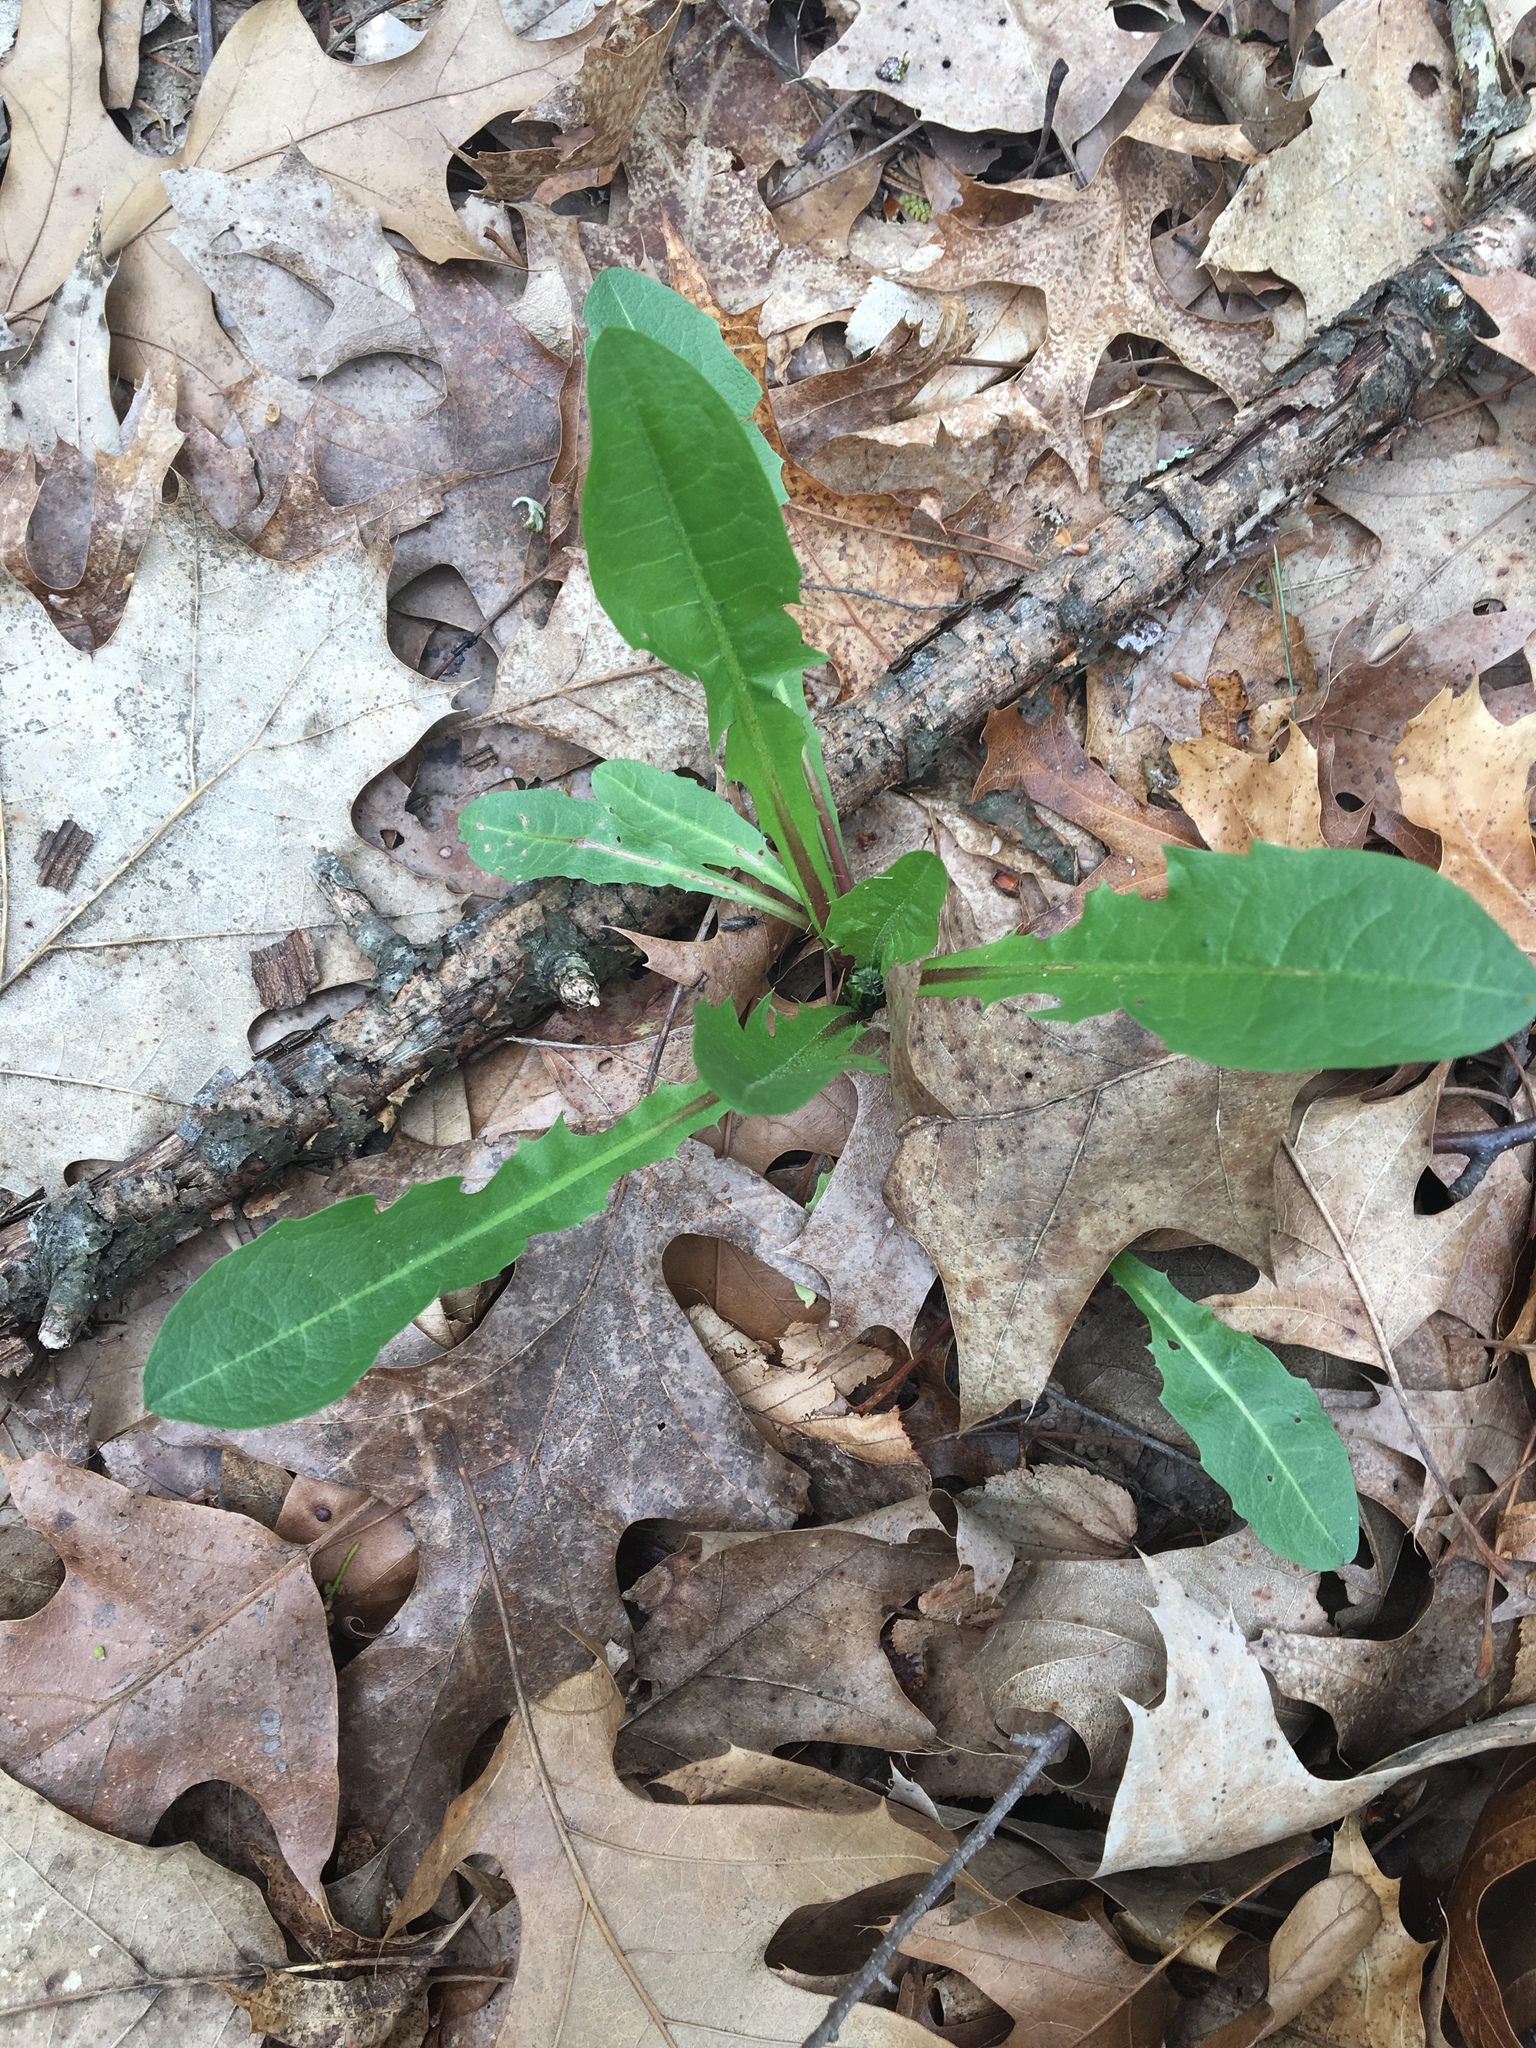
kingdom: Plantae
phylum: Tracheophyta
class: Magnoliopsida
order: Asterales
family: Asteraceae
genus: Taraxacum
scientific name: Taraxacum officinale
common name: Common dandelion
